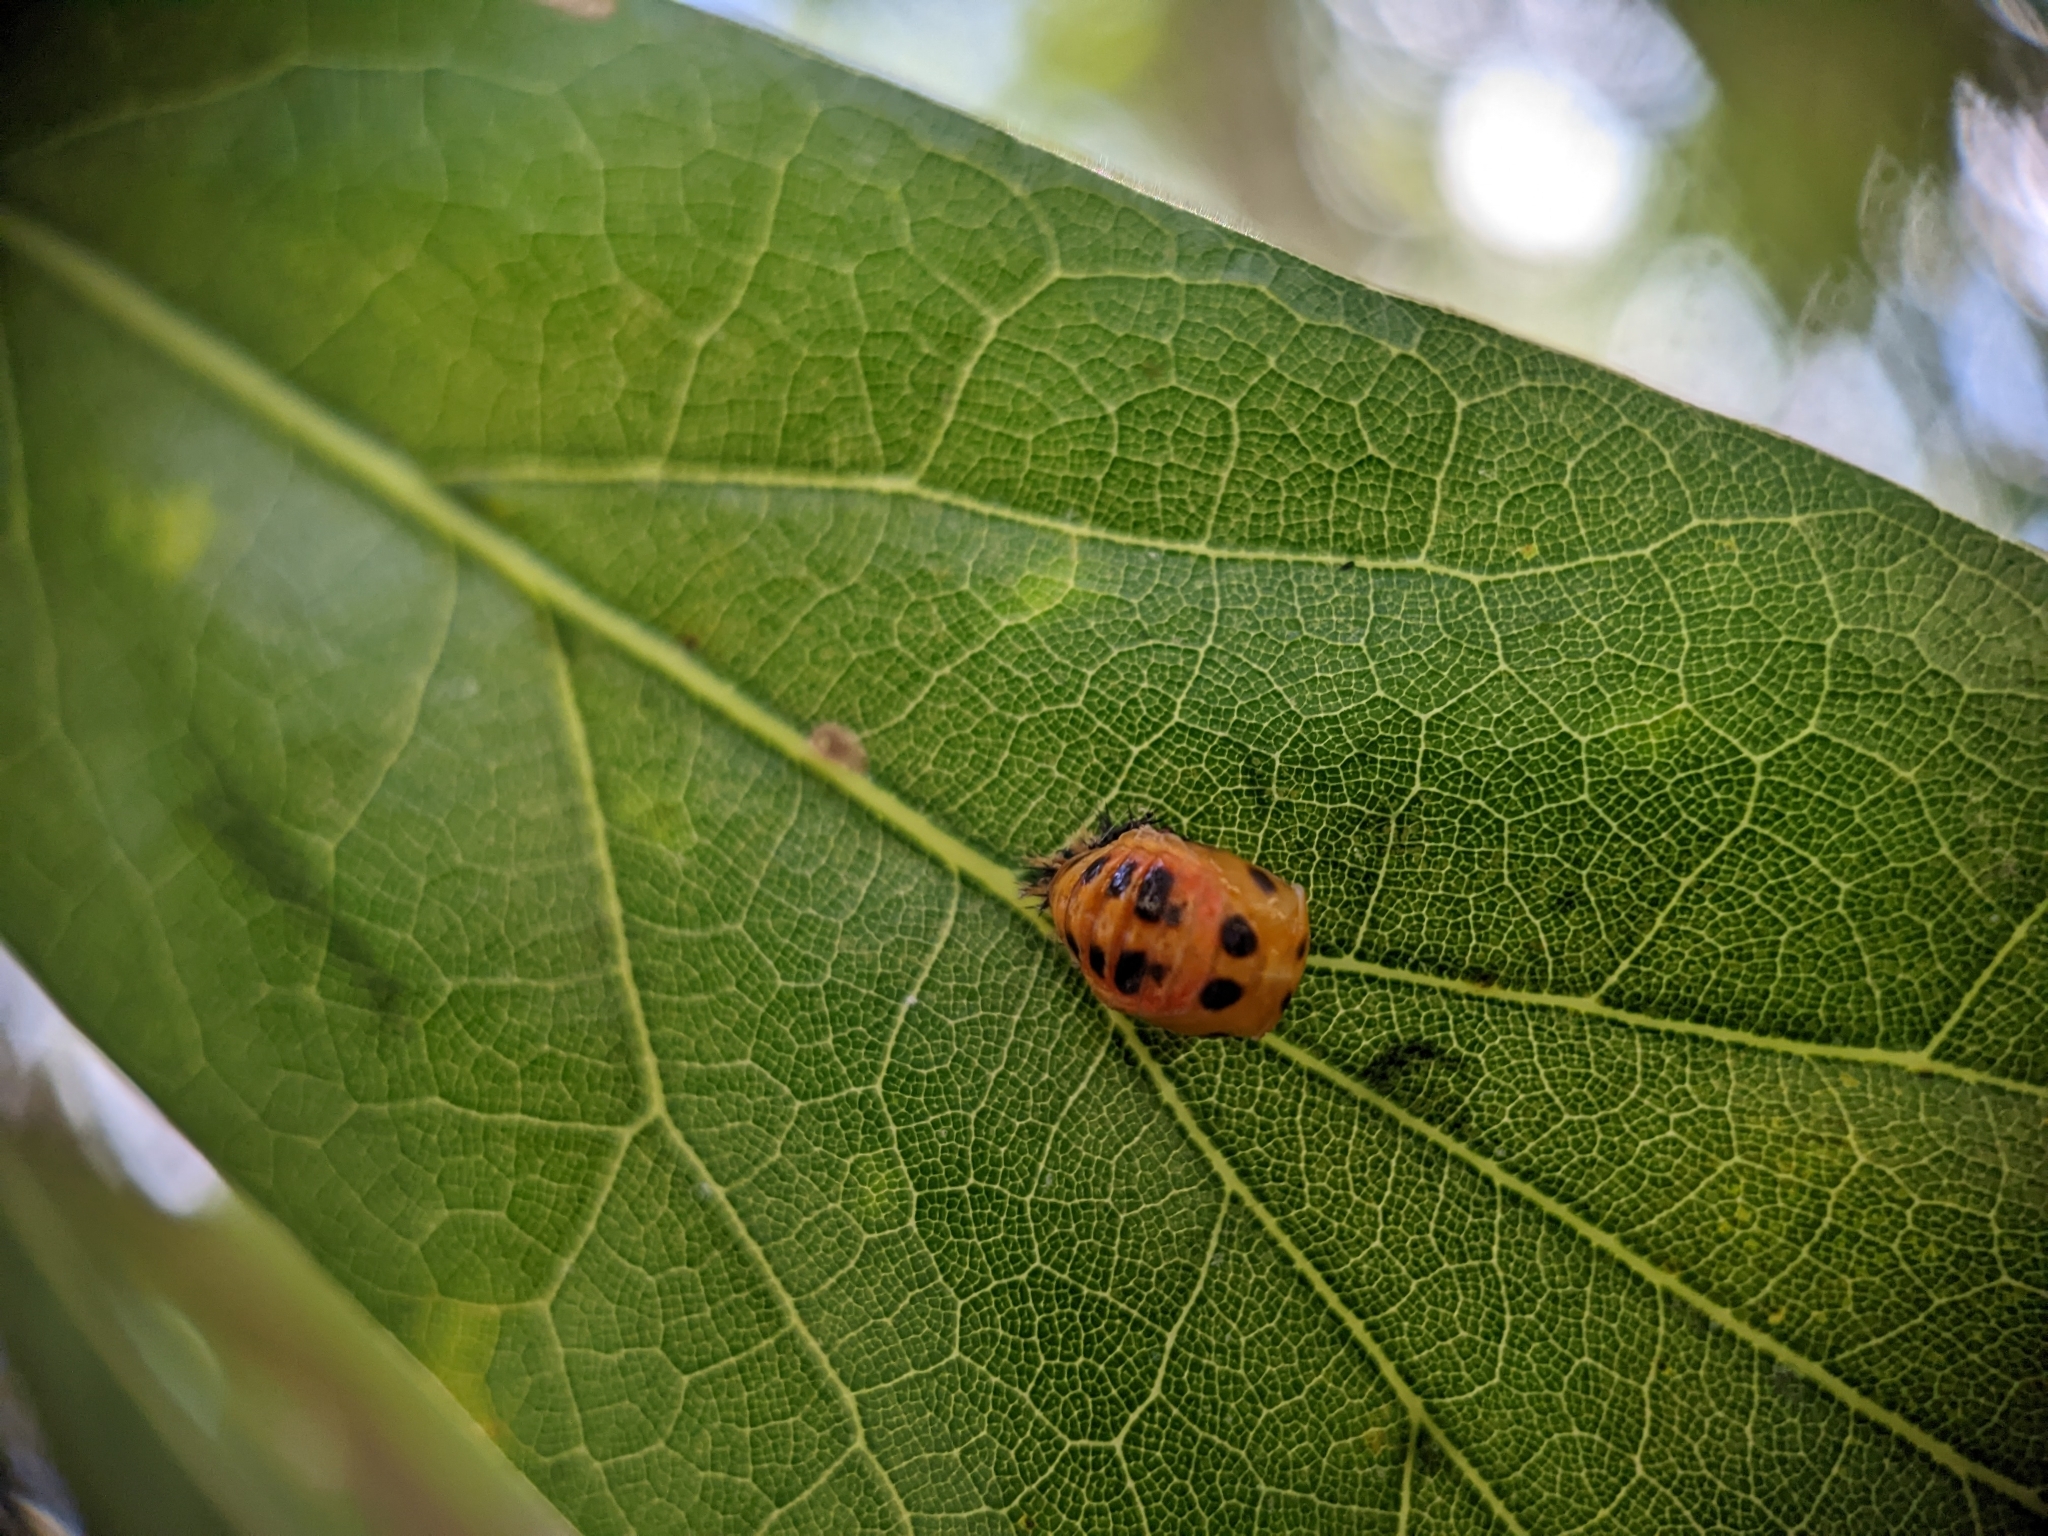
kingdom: Animalia
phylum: Arthropoda
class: Insecta
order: Coleoptera
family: Coccinellidae
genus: Harmonia
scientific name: Harmonia axyridis
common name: Harlequin ladybird
